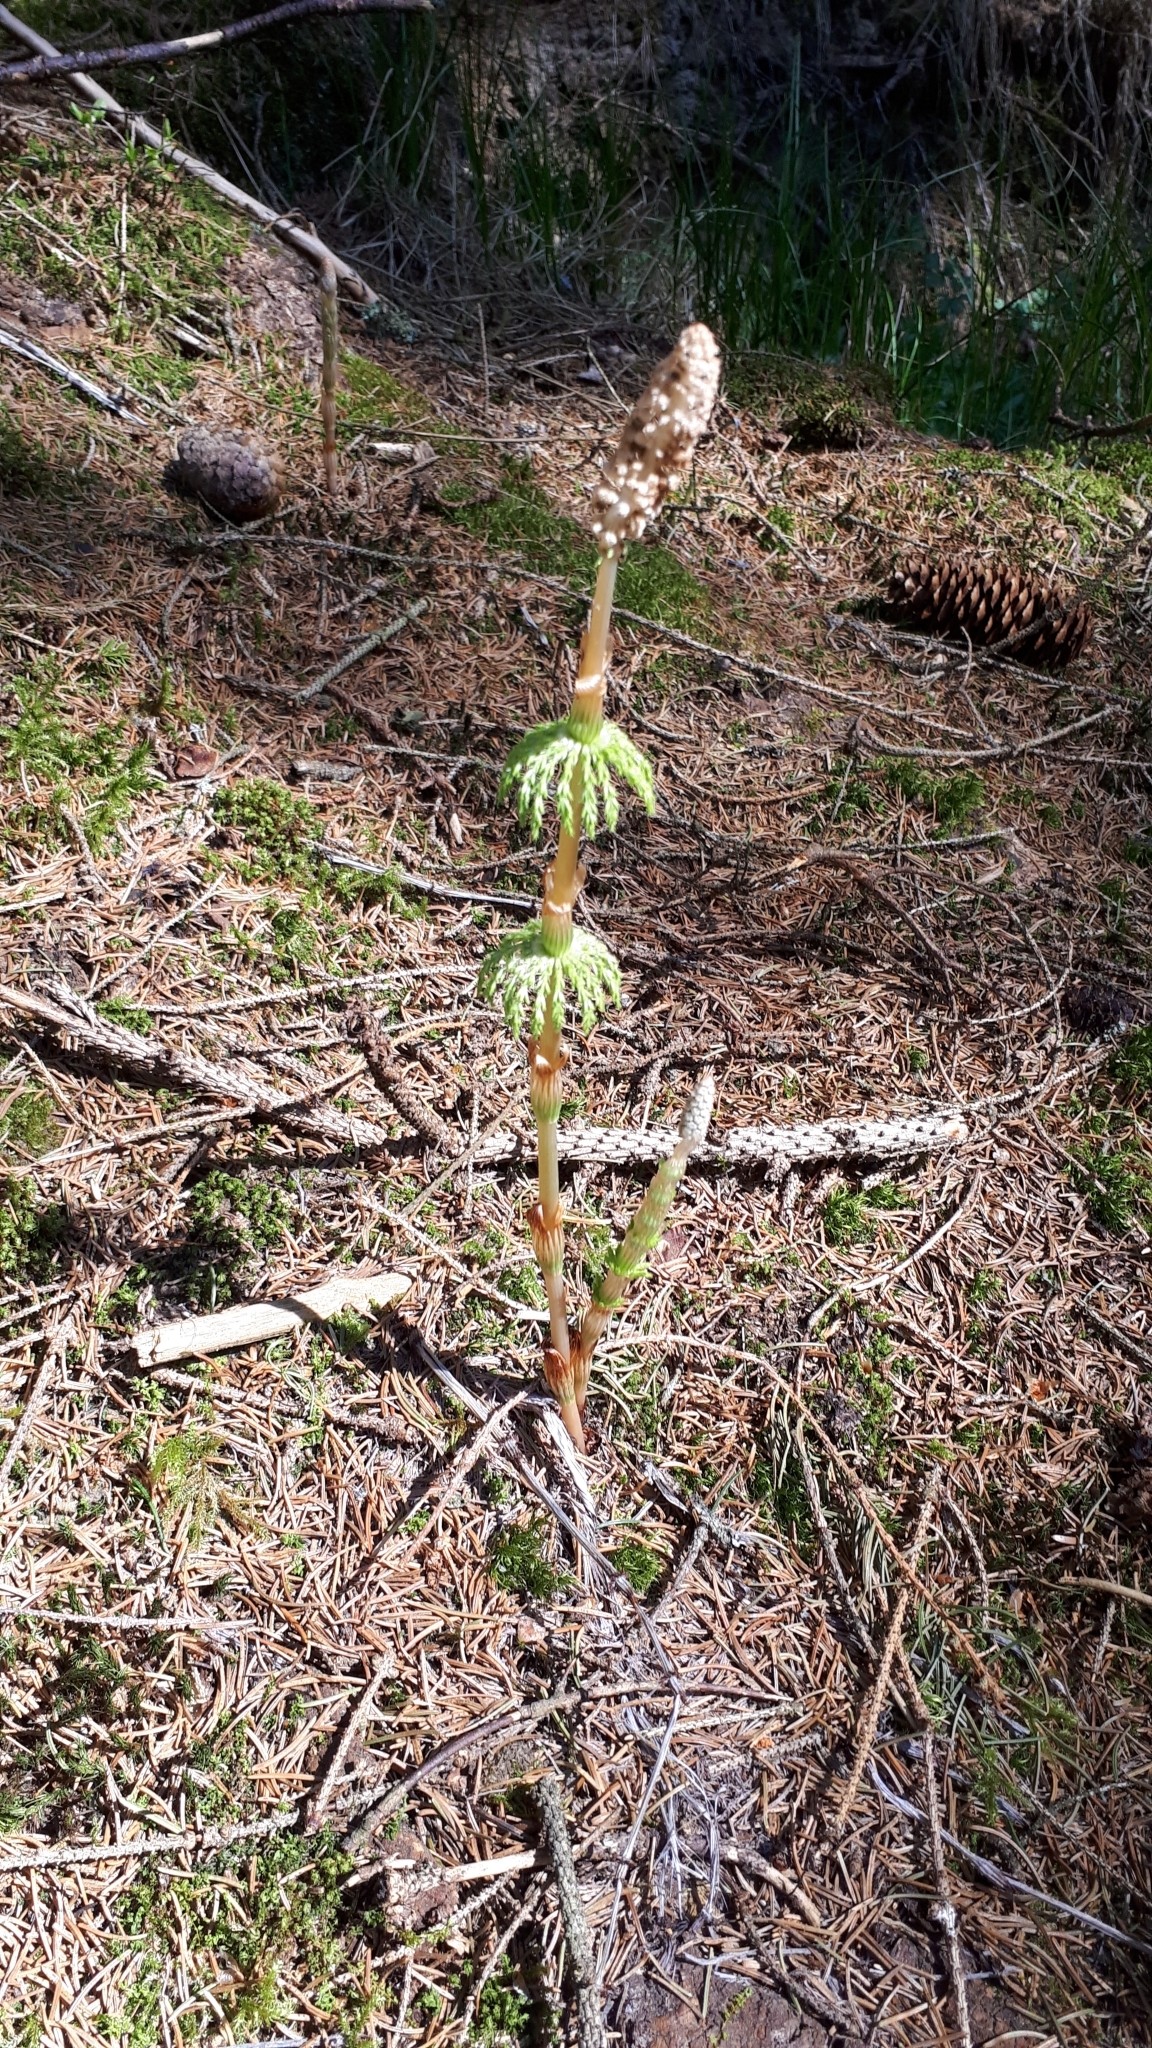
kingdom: Plantae
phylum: Tracheophyta
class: Polypodiopsida
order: Equisetales
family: Equisetaceae
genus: Equisetum
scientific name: Equisetum sylvaticum
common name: Wood horsetail
